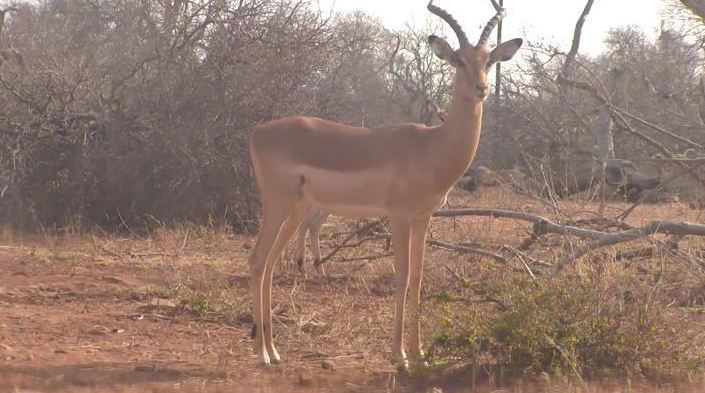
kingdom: Animalia
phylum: Chordata
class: Mammalia
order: Artiodactyla
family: Bovidae
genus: Aepyceros
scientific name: Aepyceros melampus
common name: Impala
